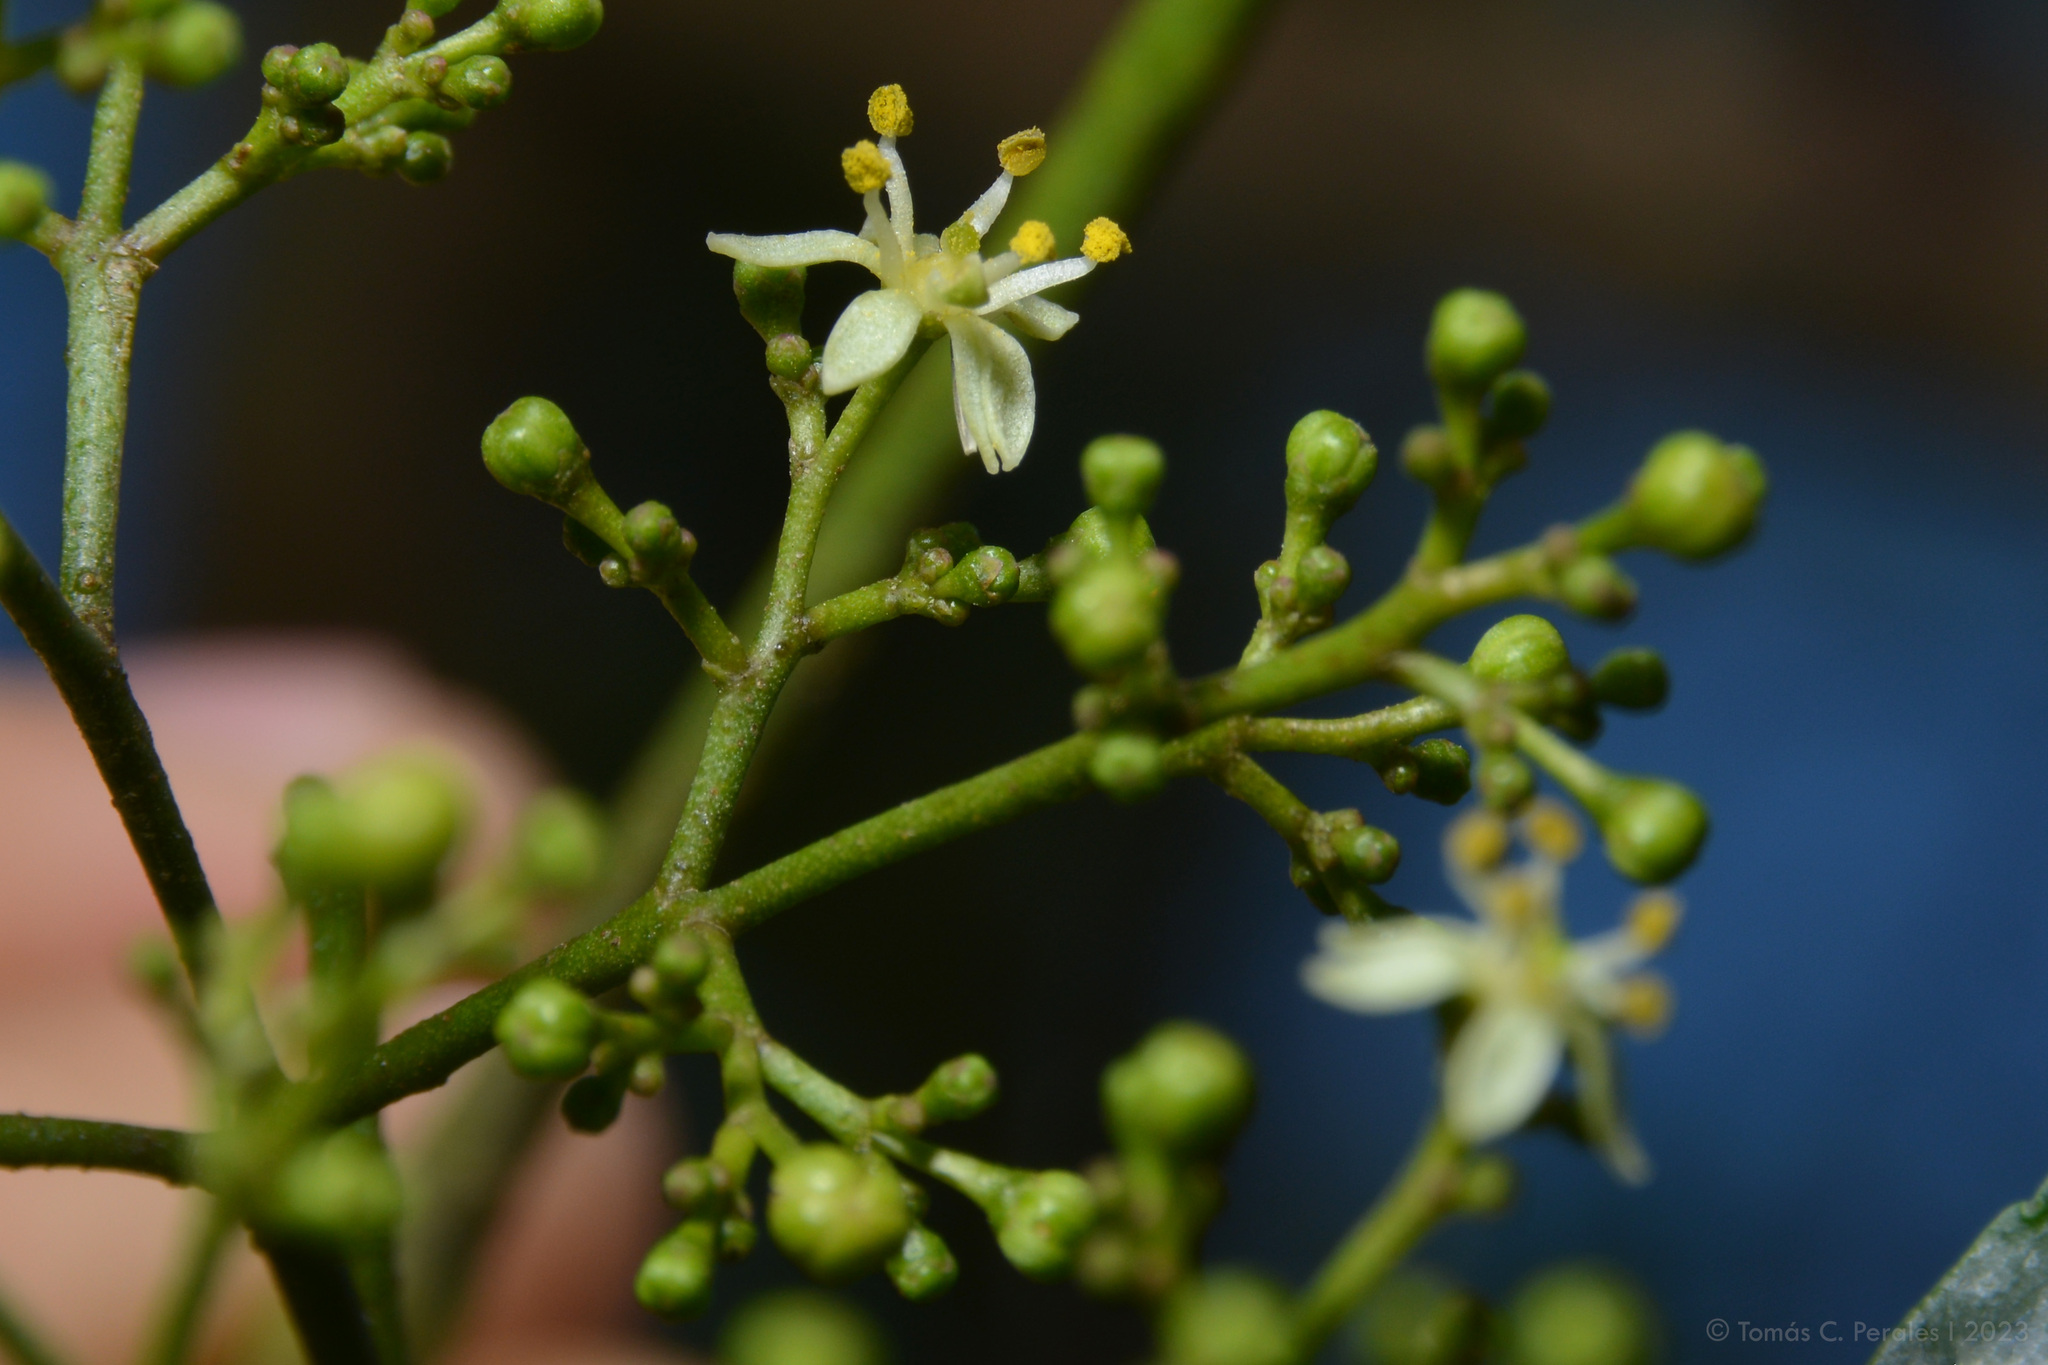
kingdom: Plantae
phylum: Tracheophyta
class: Magnoliopsida
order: Sapindales
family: Rutaceae
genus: Zanthoxylum
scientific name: Zanthoxylum coco
